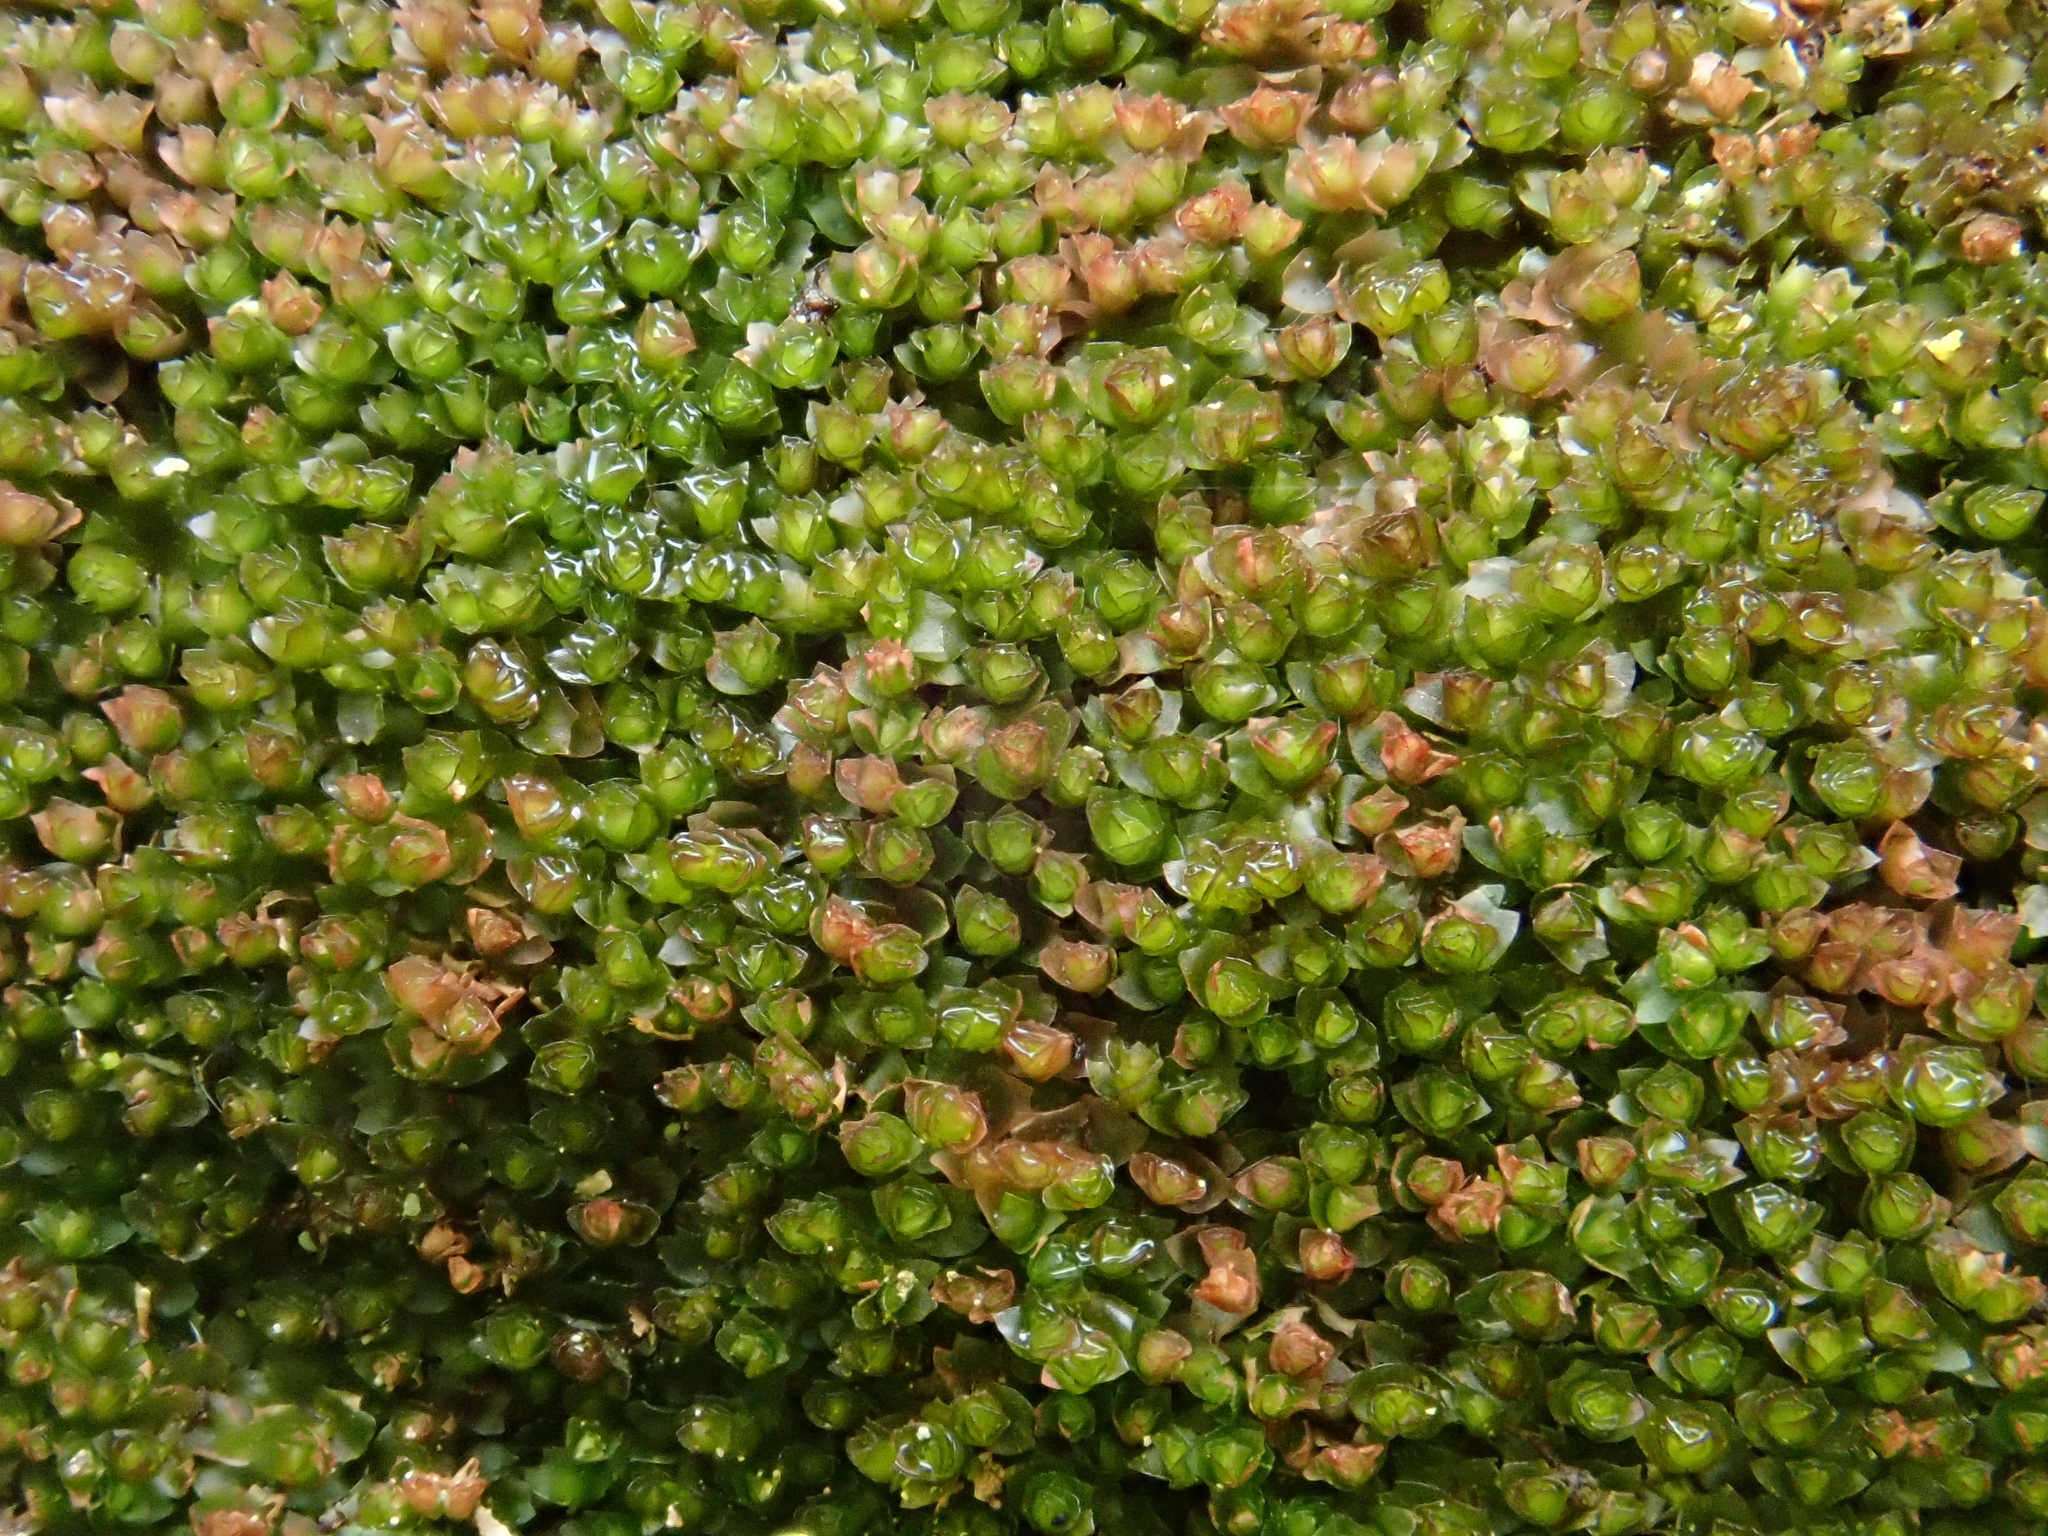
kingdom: Plantae
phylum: Marchantiophyta
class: Jungermanniopsida
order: Jungermanniales
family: Anastrophyllaceae
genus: Barbilophozia
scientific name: Barbilophozia sudetica
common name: Hill notchwort
